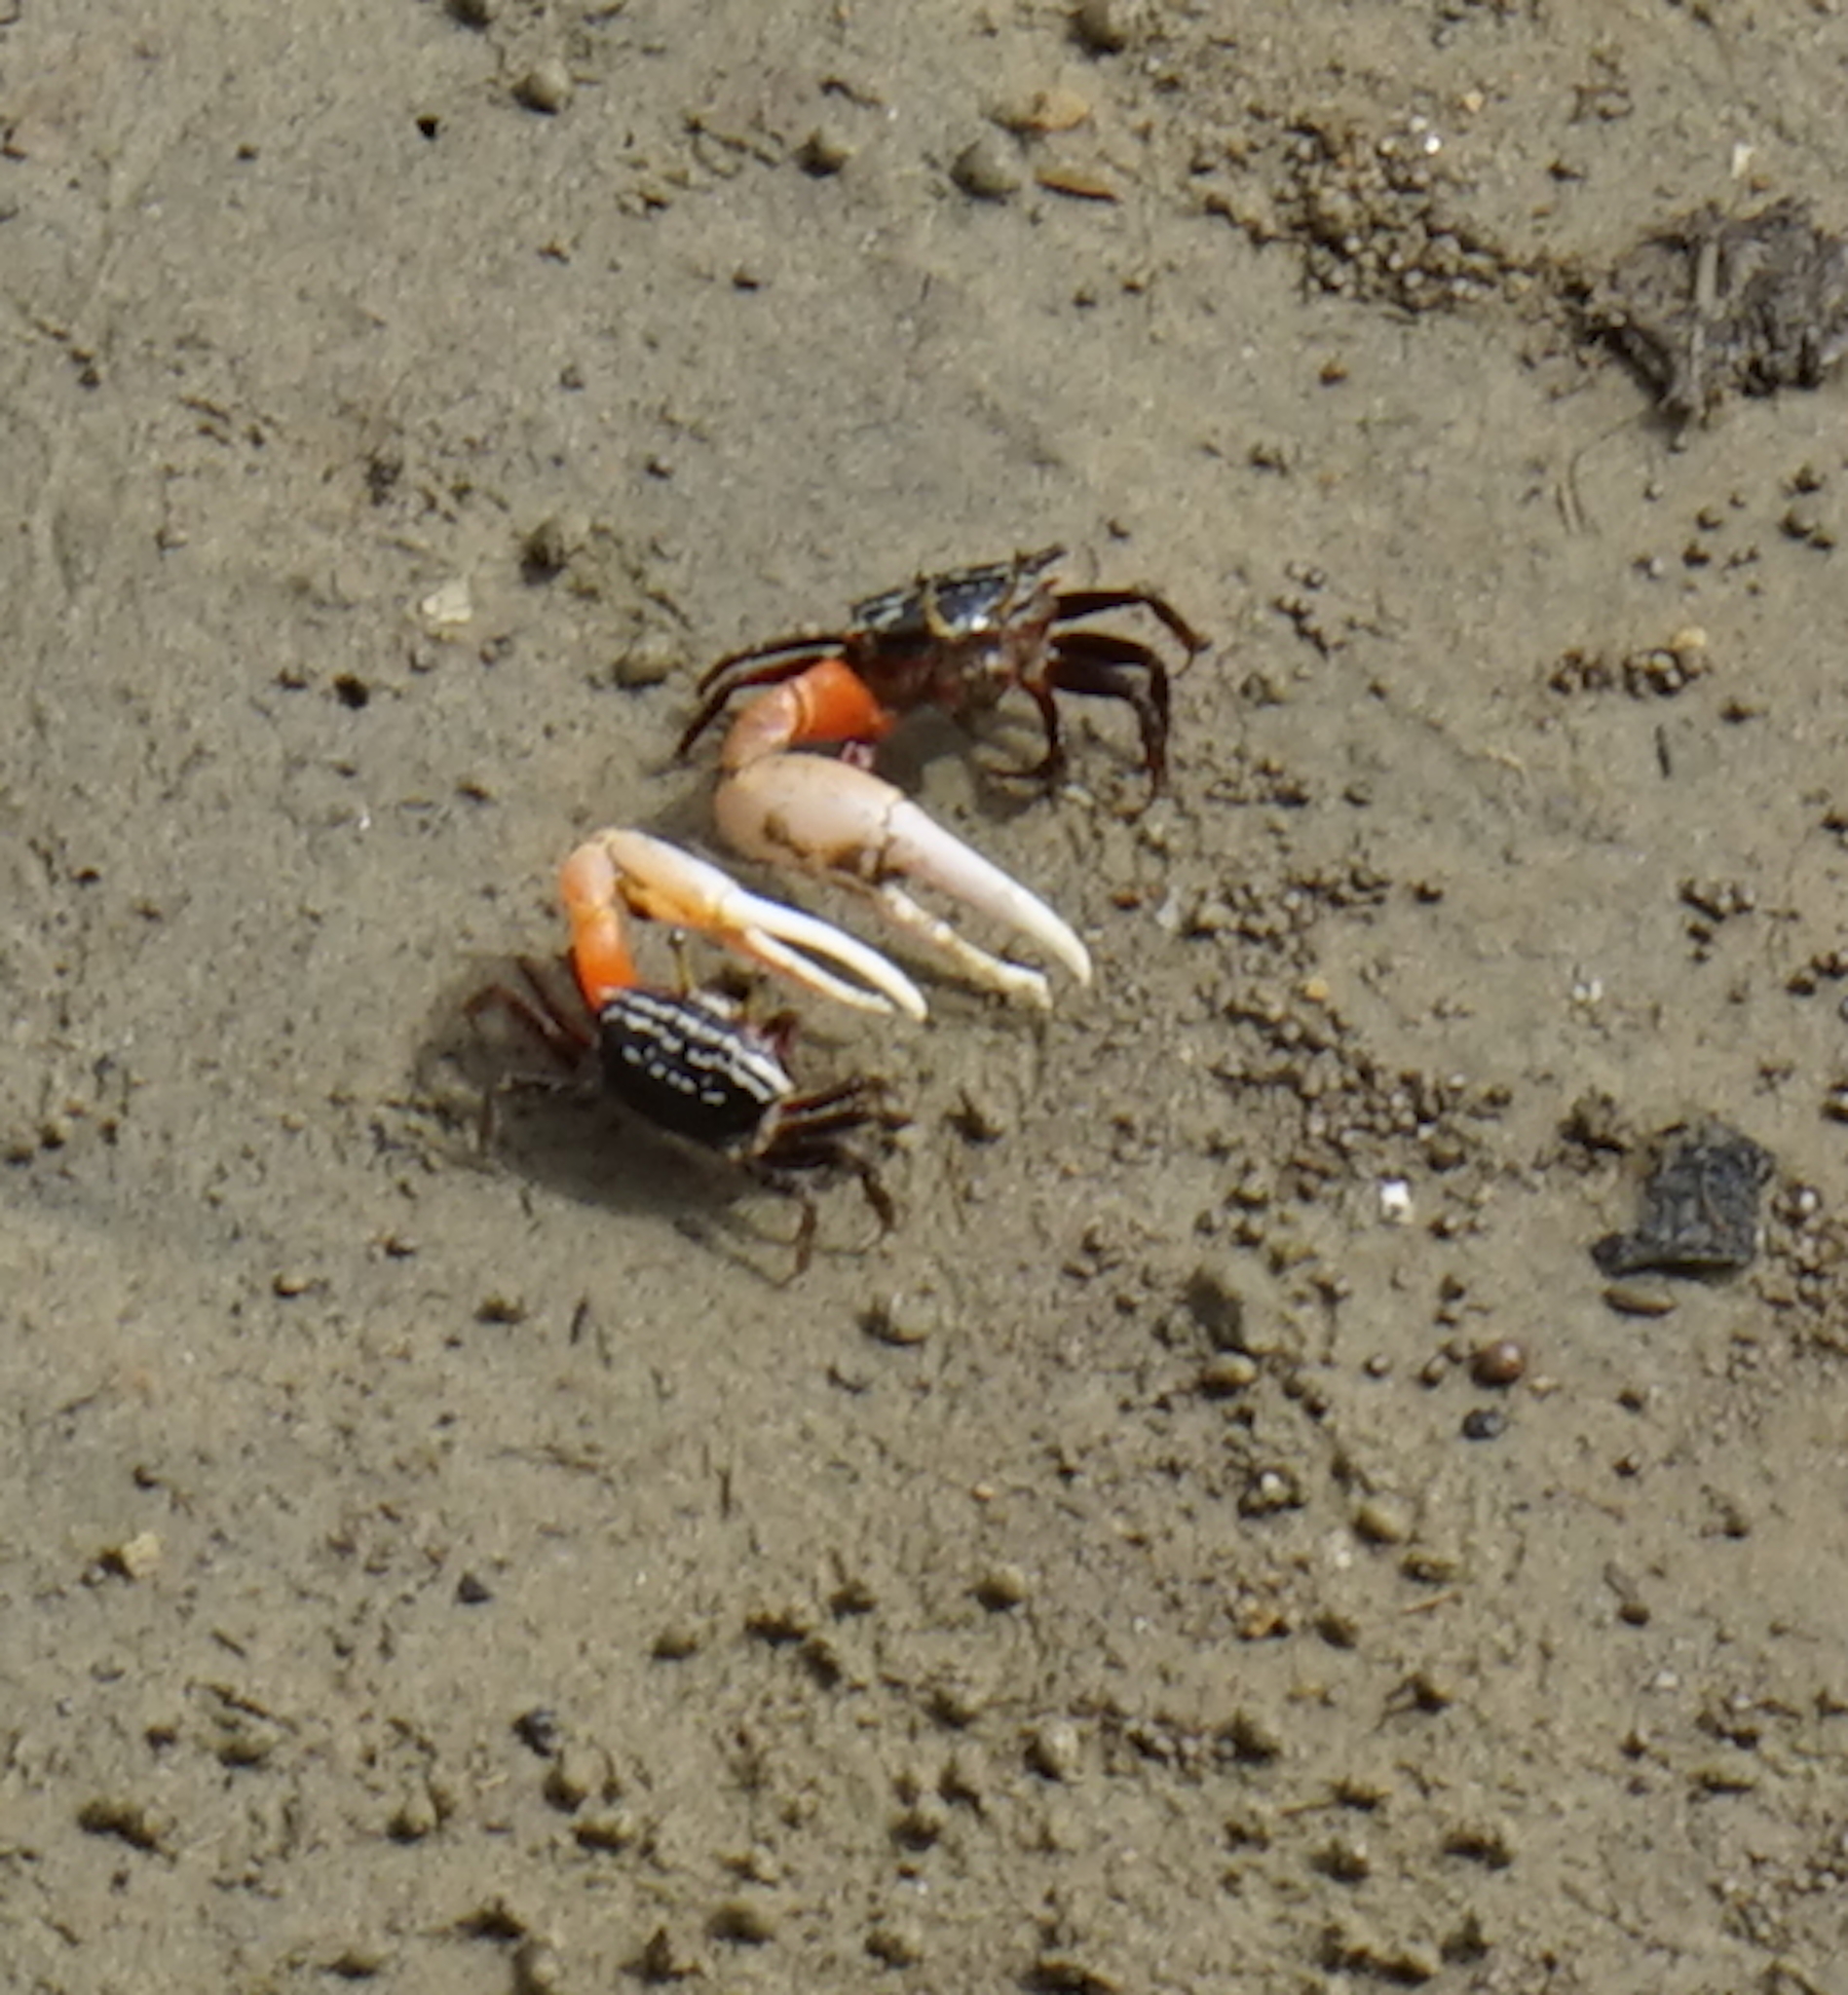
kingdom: Animalia
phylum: Arthropoda
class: Malacostraca
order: Decapoda
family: Ocypodidae
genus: Austruca
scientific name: Austruca annulipes
